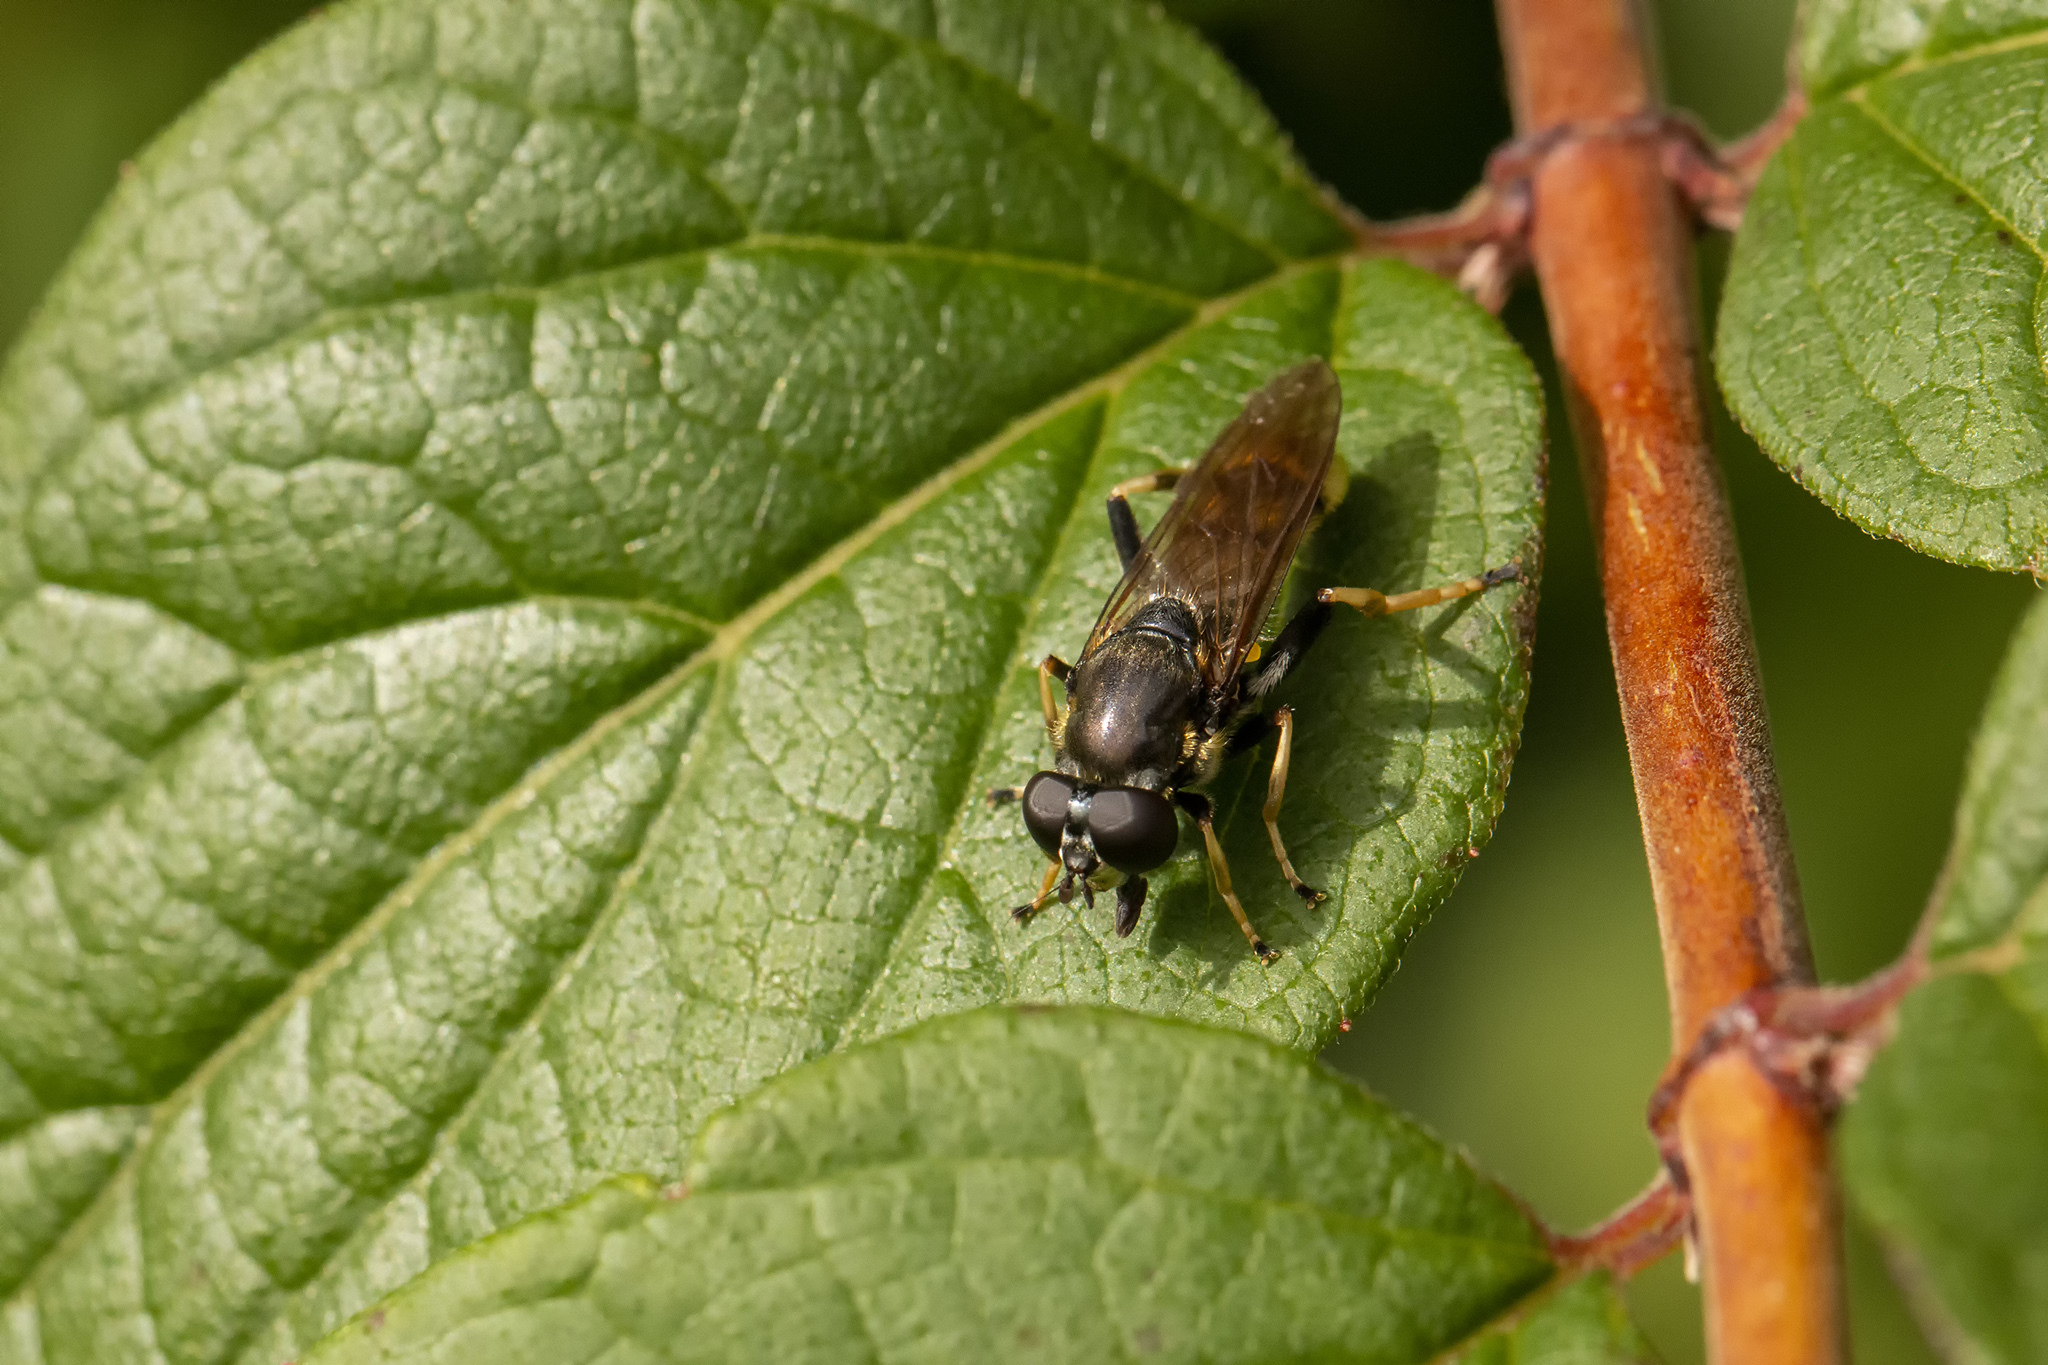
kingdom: Animalia
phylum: Arthropoda
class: Insecta
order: Diptera
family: Syrphidae
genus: Xylota
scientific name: Xylota sylvarum
